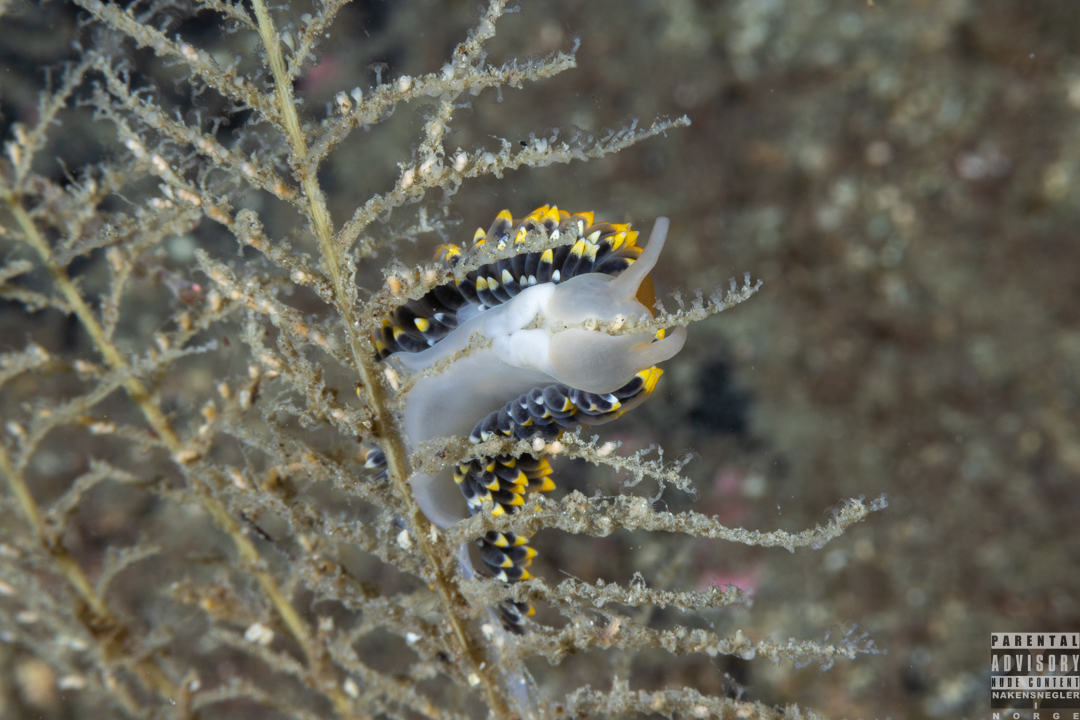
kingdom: Animalia
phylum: Mollusca
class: Gastropoda
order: Nudibranchia
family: Eubranchidae
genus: Eubranchus
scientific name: Eubranchus tricolor
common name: Painted balloon aeolis
